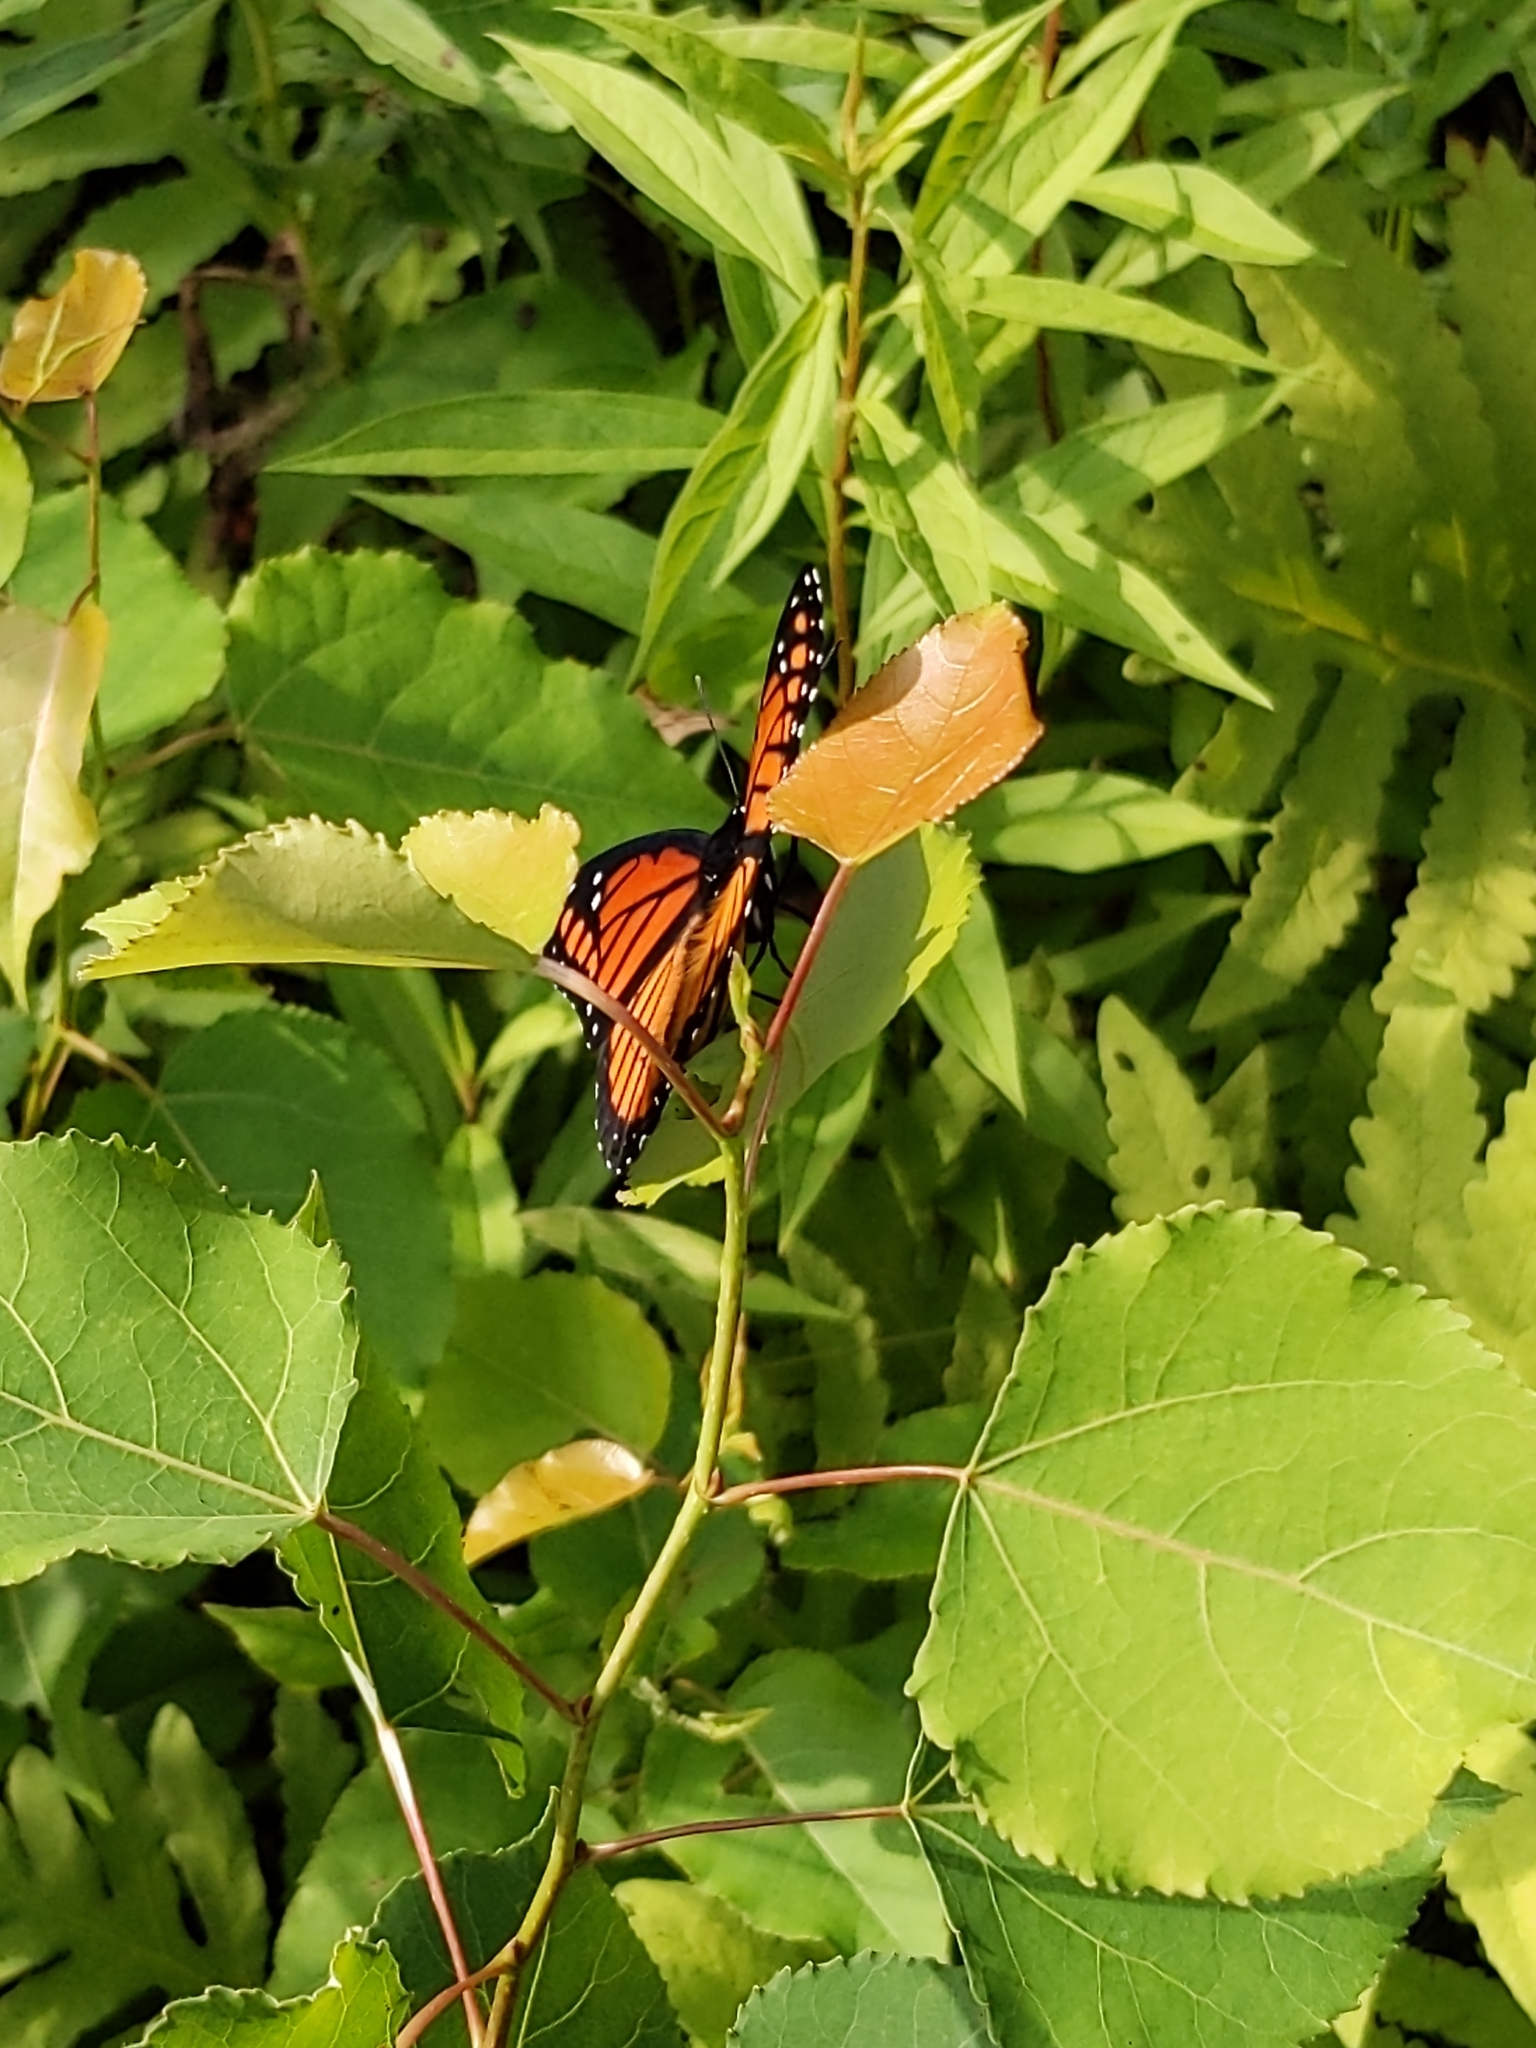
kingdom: Animalia
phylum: Arthropoda
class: Insecta
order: Lepidoptera
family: Nymphalidae
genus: Limenitis
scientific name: Limenitis archippus
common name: Viceroy
